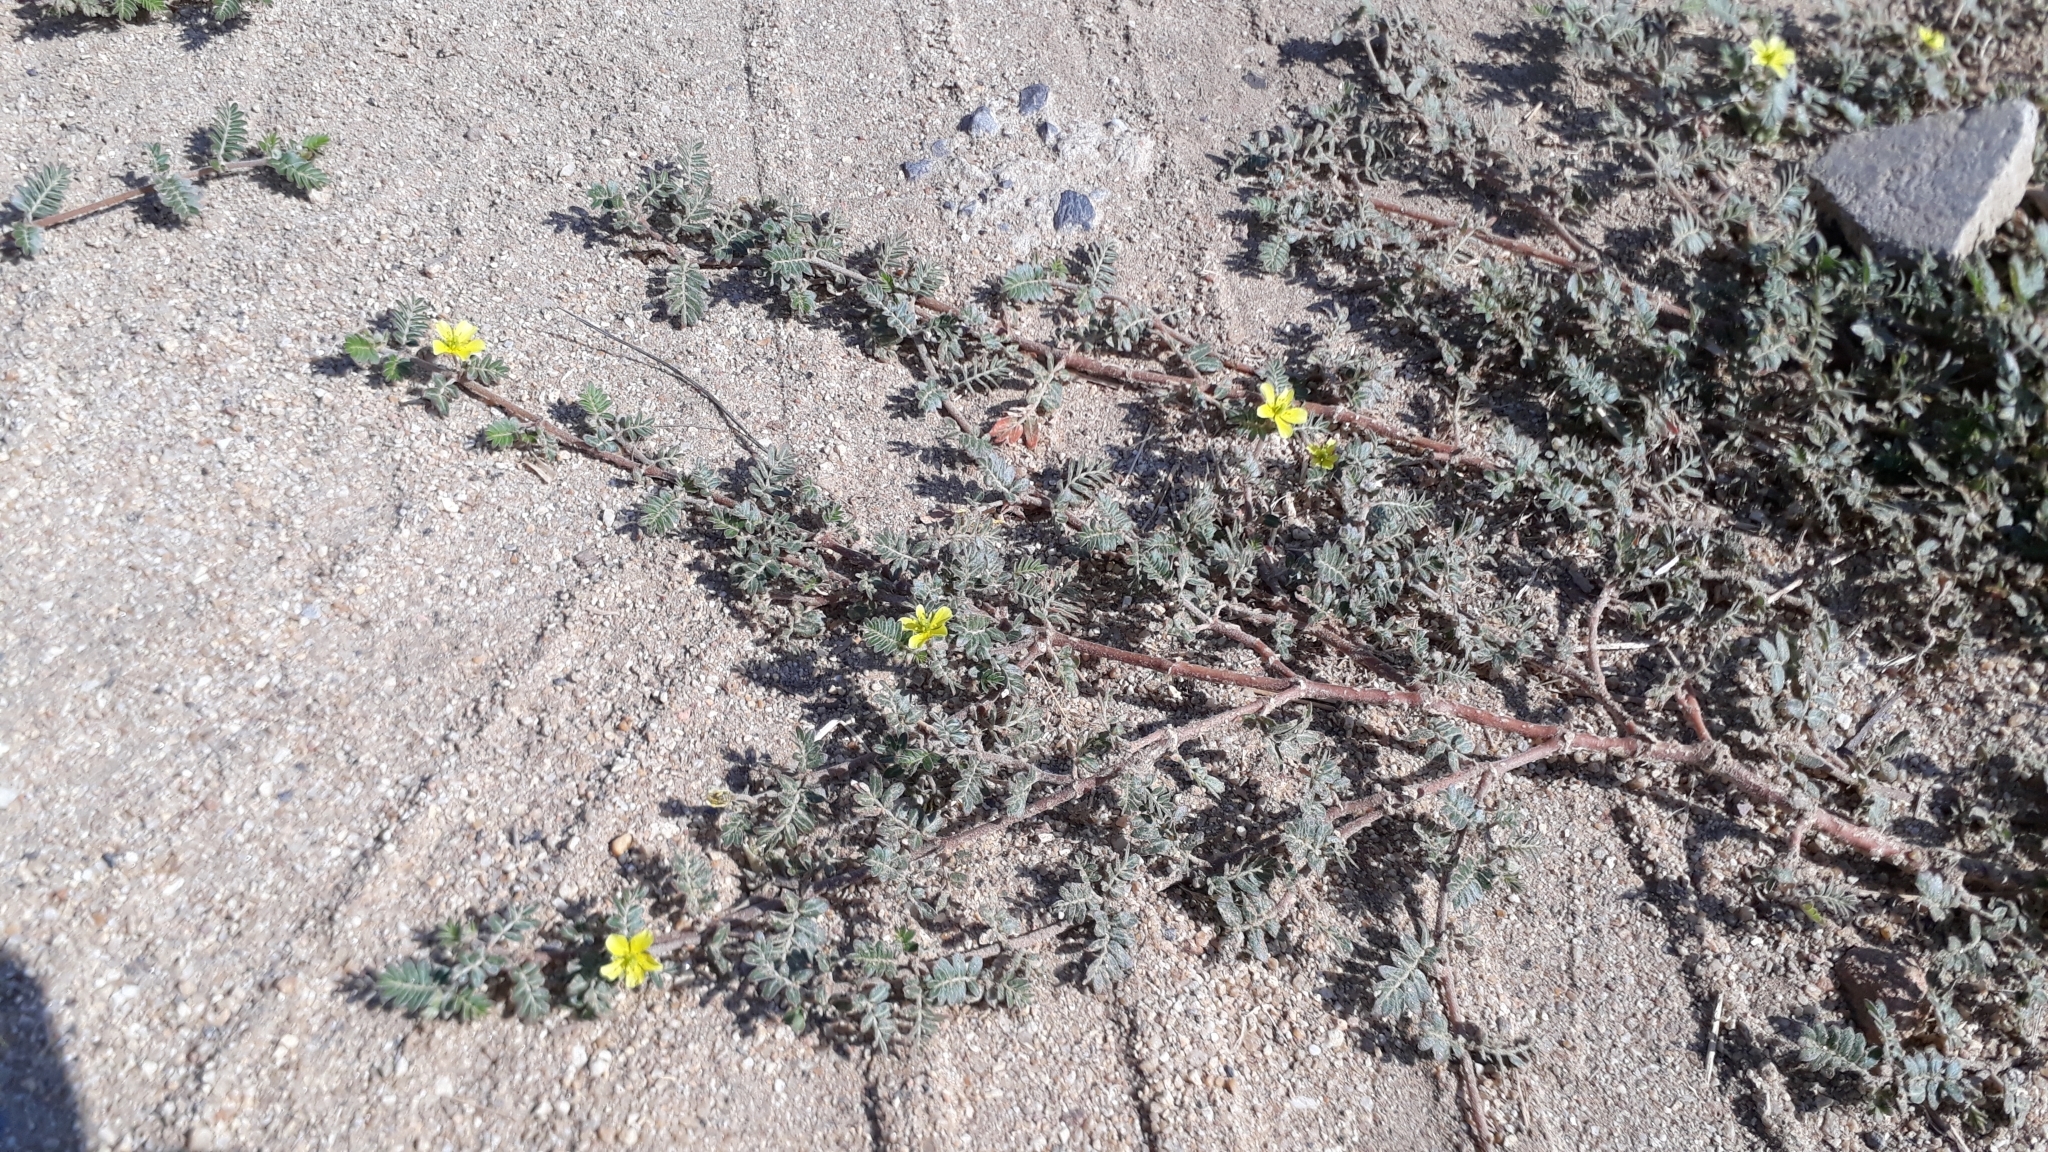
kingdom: Plantae
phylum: Tracheophyta
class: Magnoliopsida
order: Zygophyllales
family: Zygophyllaceae
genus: Tribulus
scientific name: Tribulus terrestris
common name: Puncturevine
